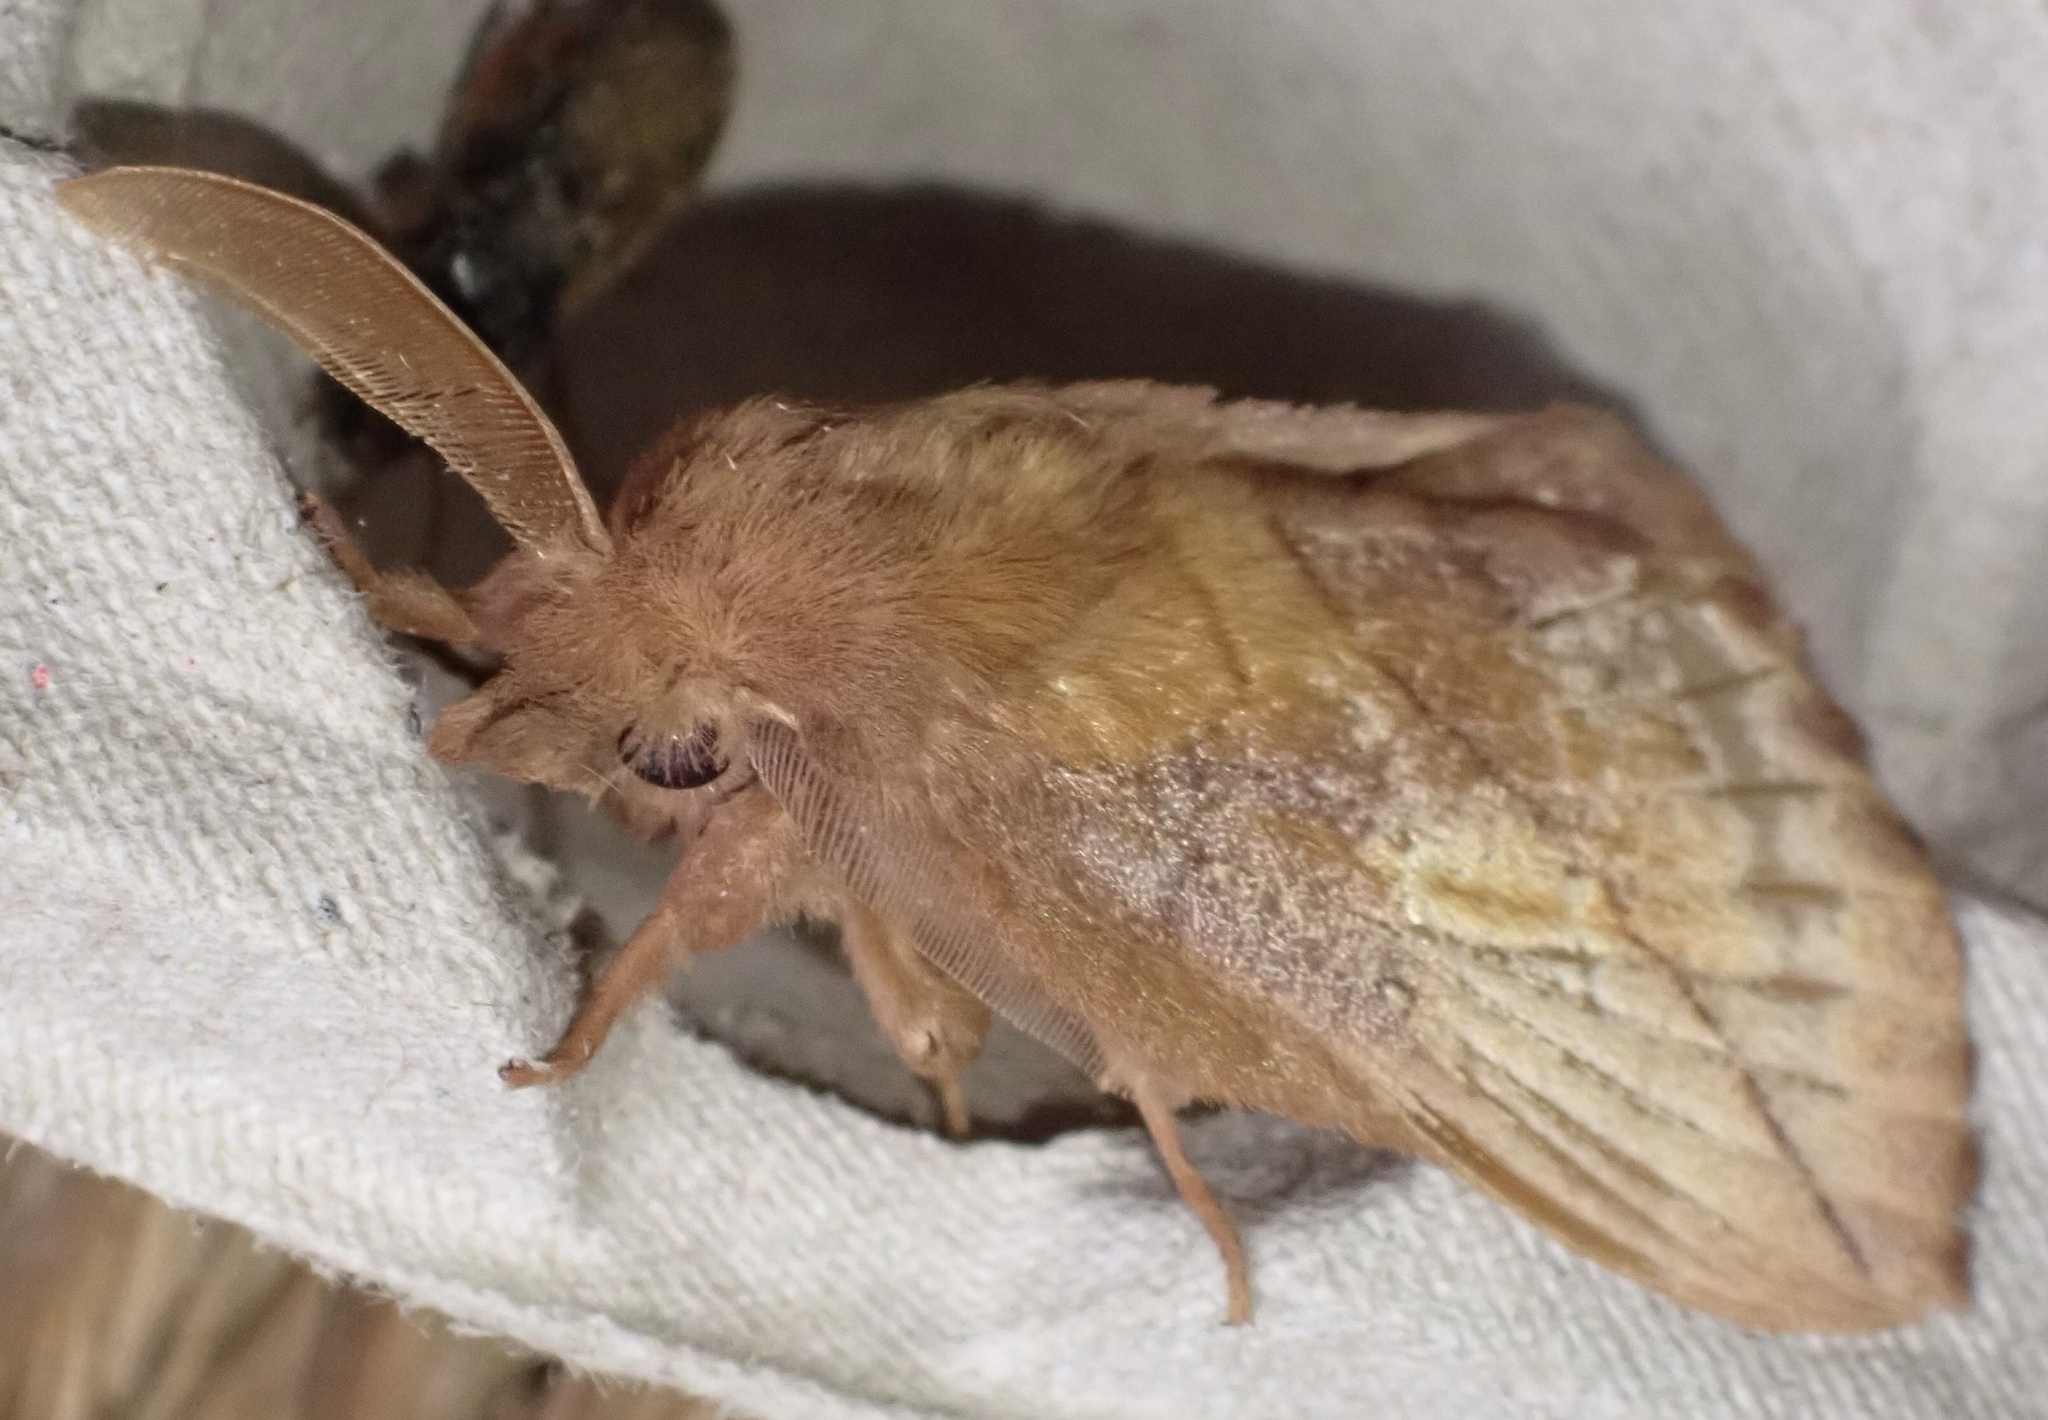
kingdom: Animalia
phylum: Arthropoda
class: Insecta
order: Lepidoptera
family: Lasiocampidae
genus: Euthrix
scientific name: Euthrix potatoria
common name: Drinker
